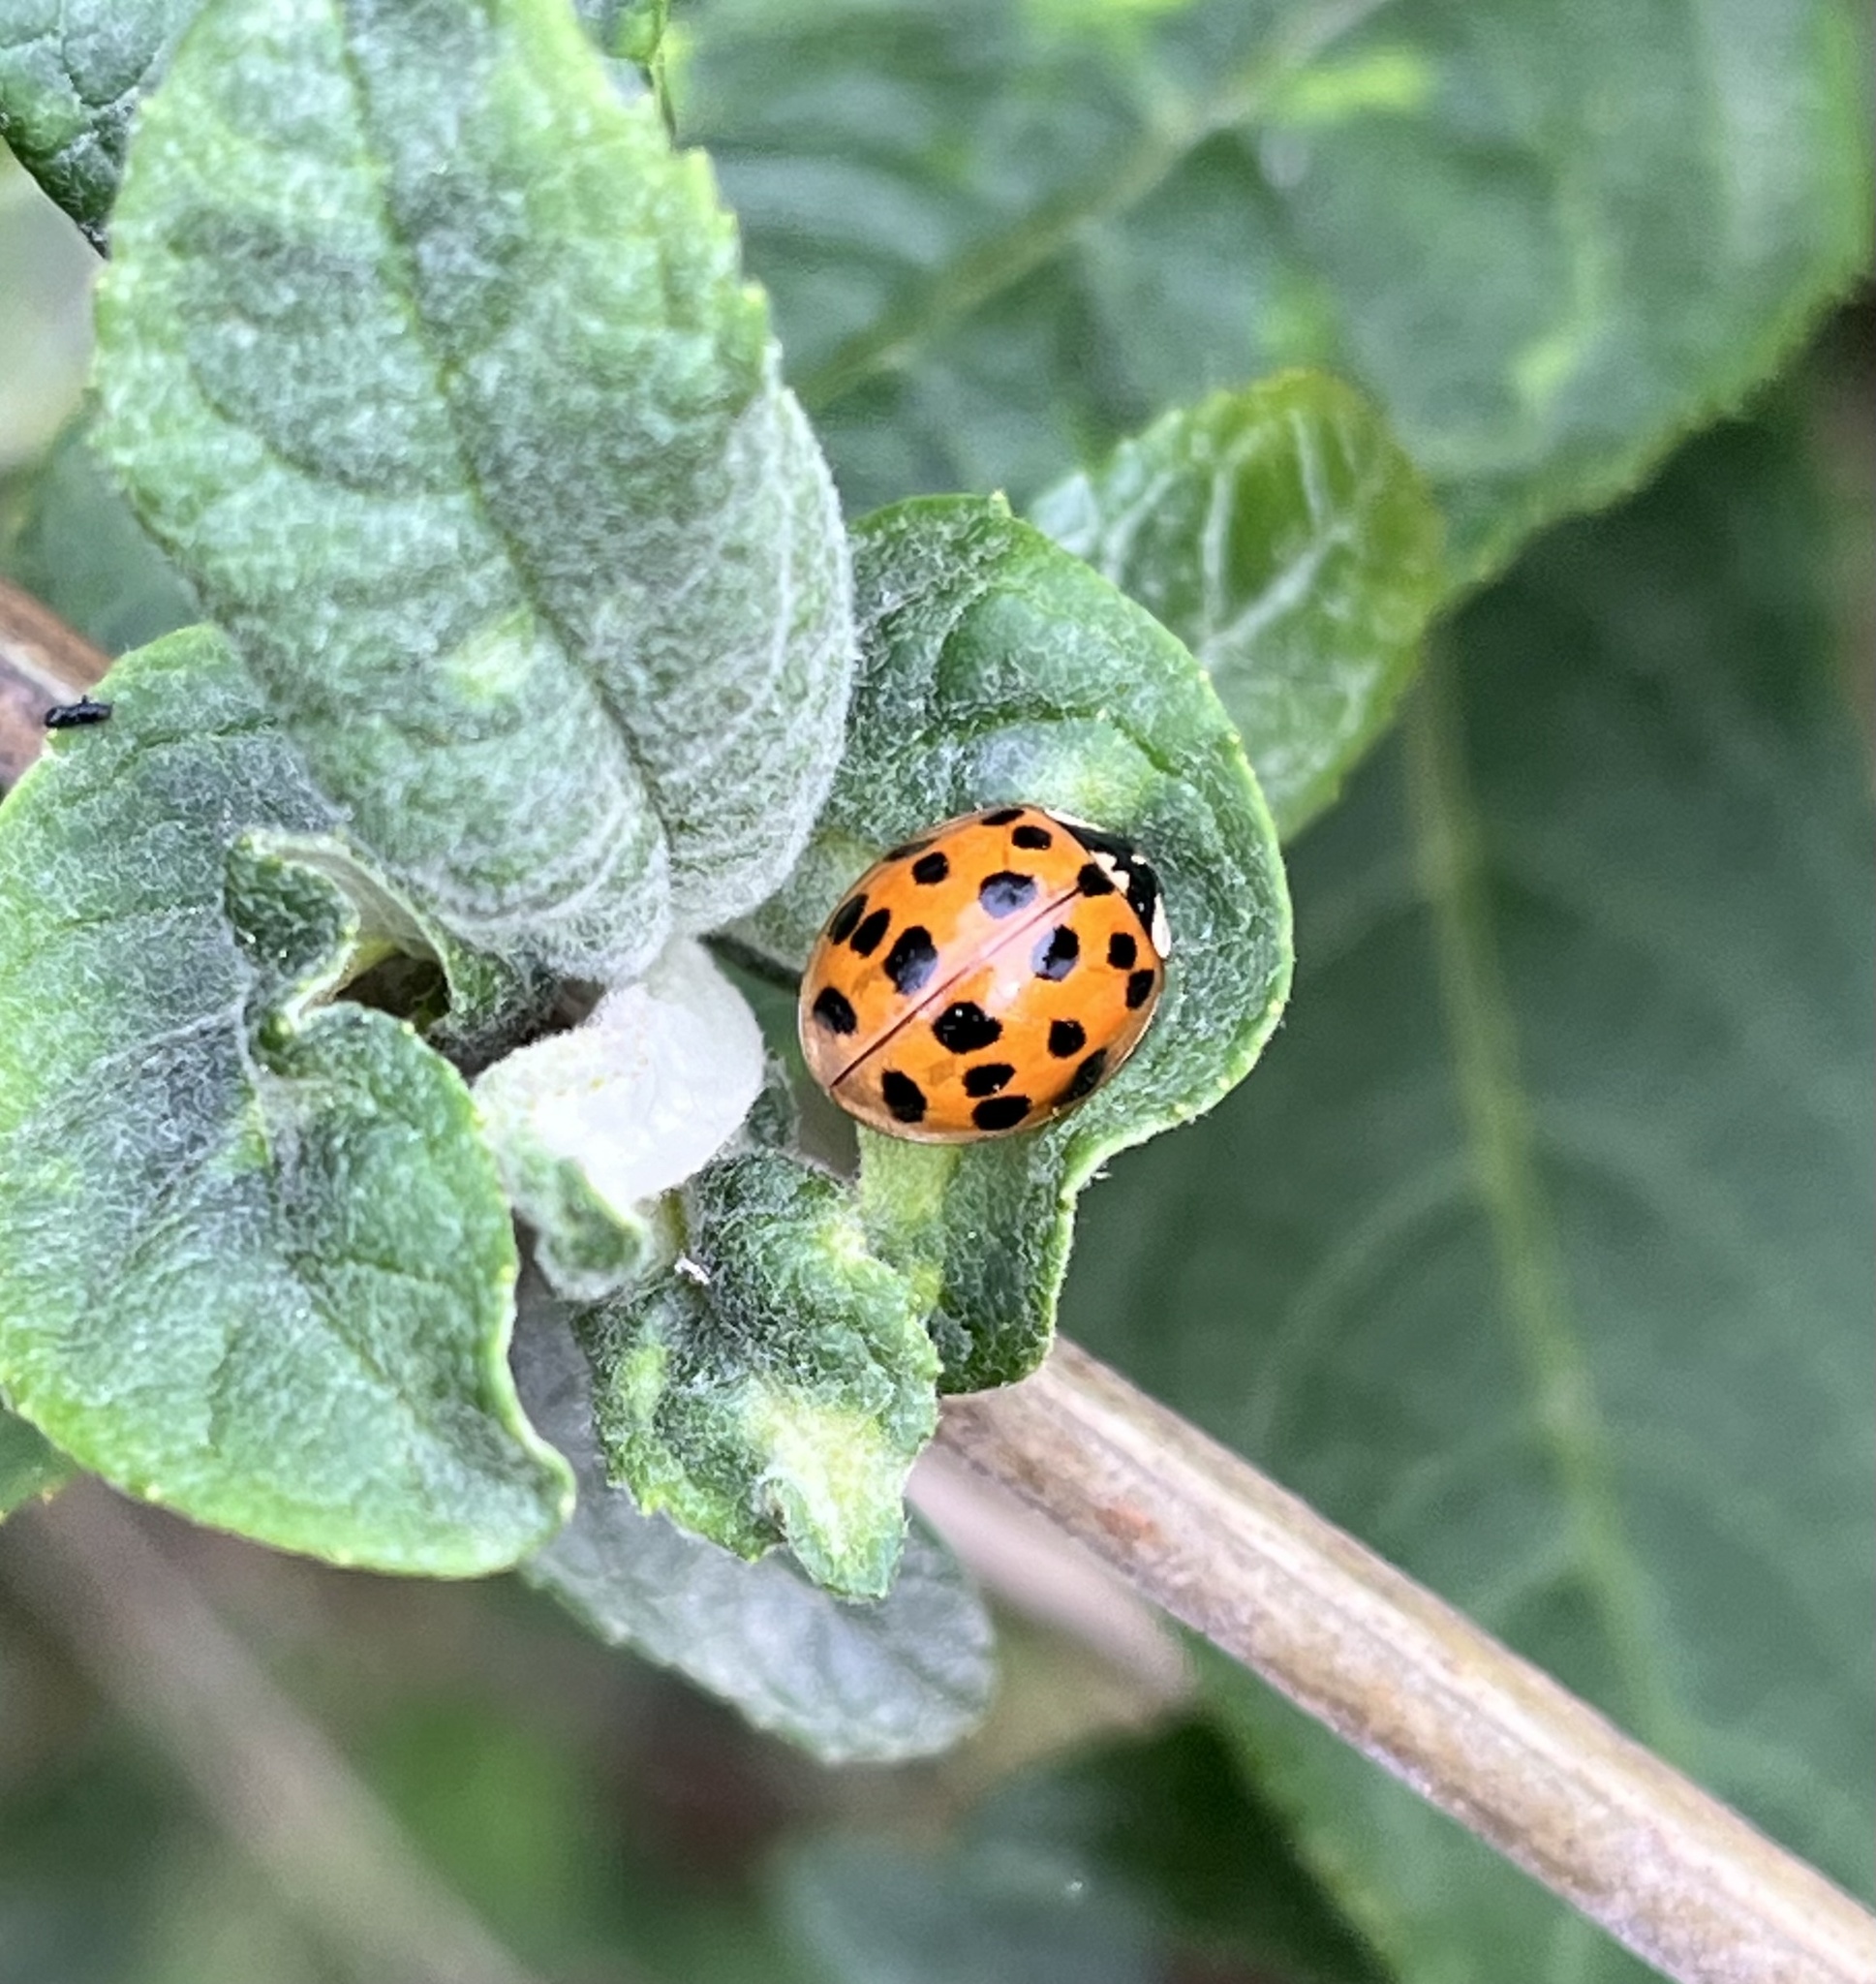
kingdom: Animalia
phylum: Arthropoda
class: Insecta
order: Coleoptera
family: Coccinellidae
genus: Harmonia
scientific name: Harmonia axyridis
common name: Harlequin ladybird
